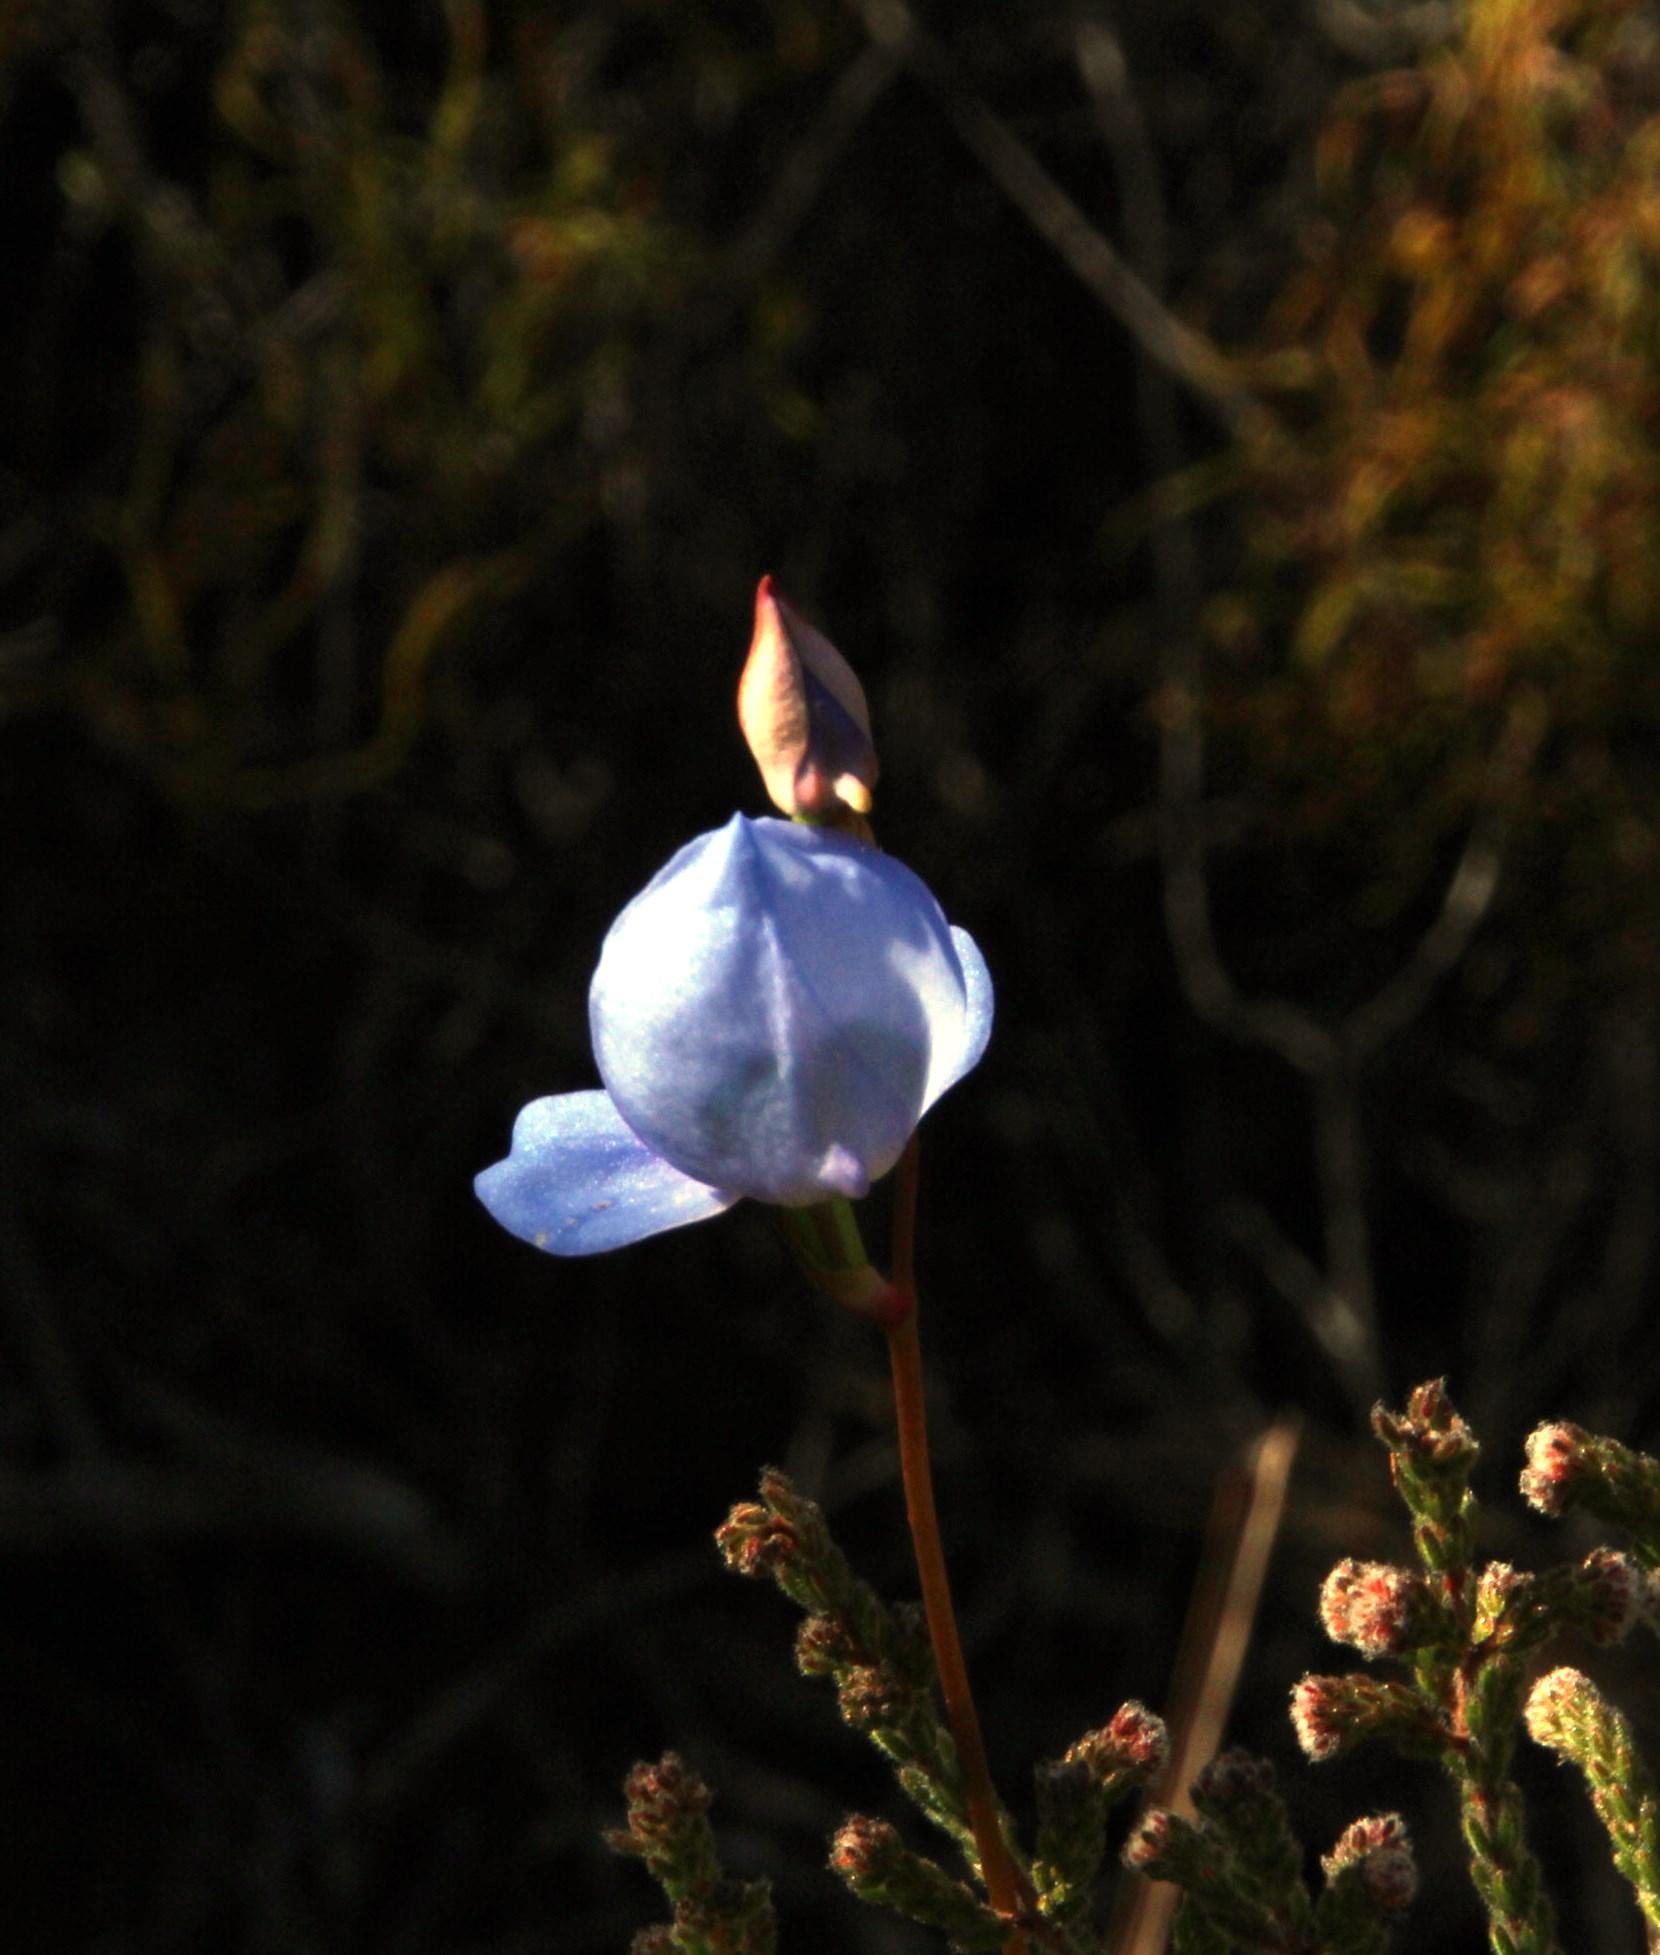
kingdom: Plantae
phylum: Tracheophyta
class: Liliopsida
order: Asparagales
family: Orchidaceae
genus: Disa
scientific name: Disa graminifolia
